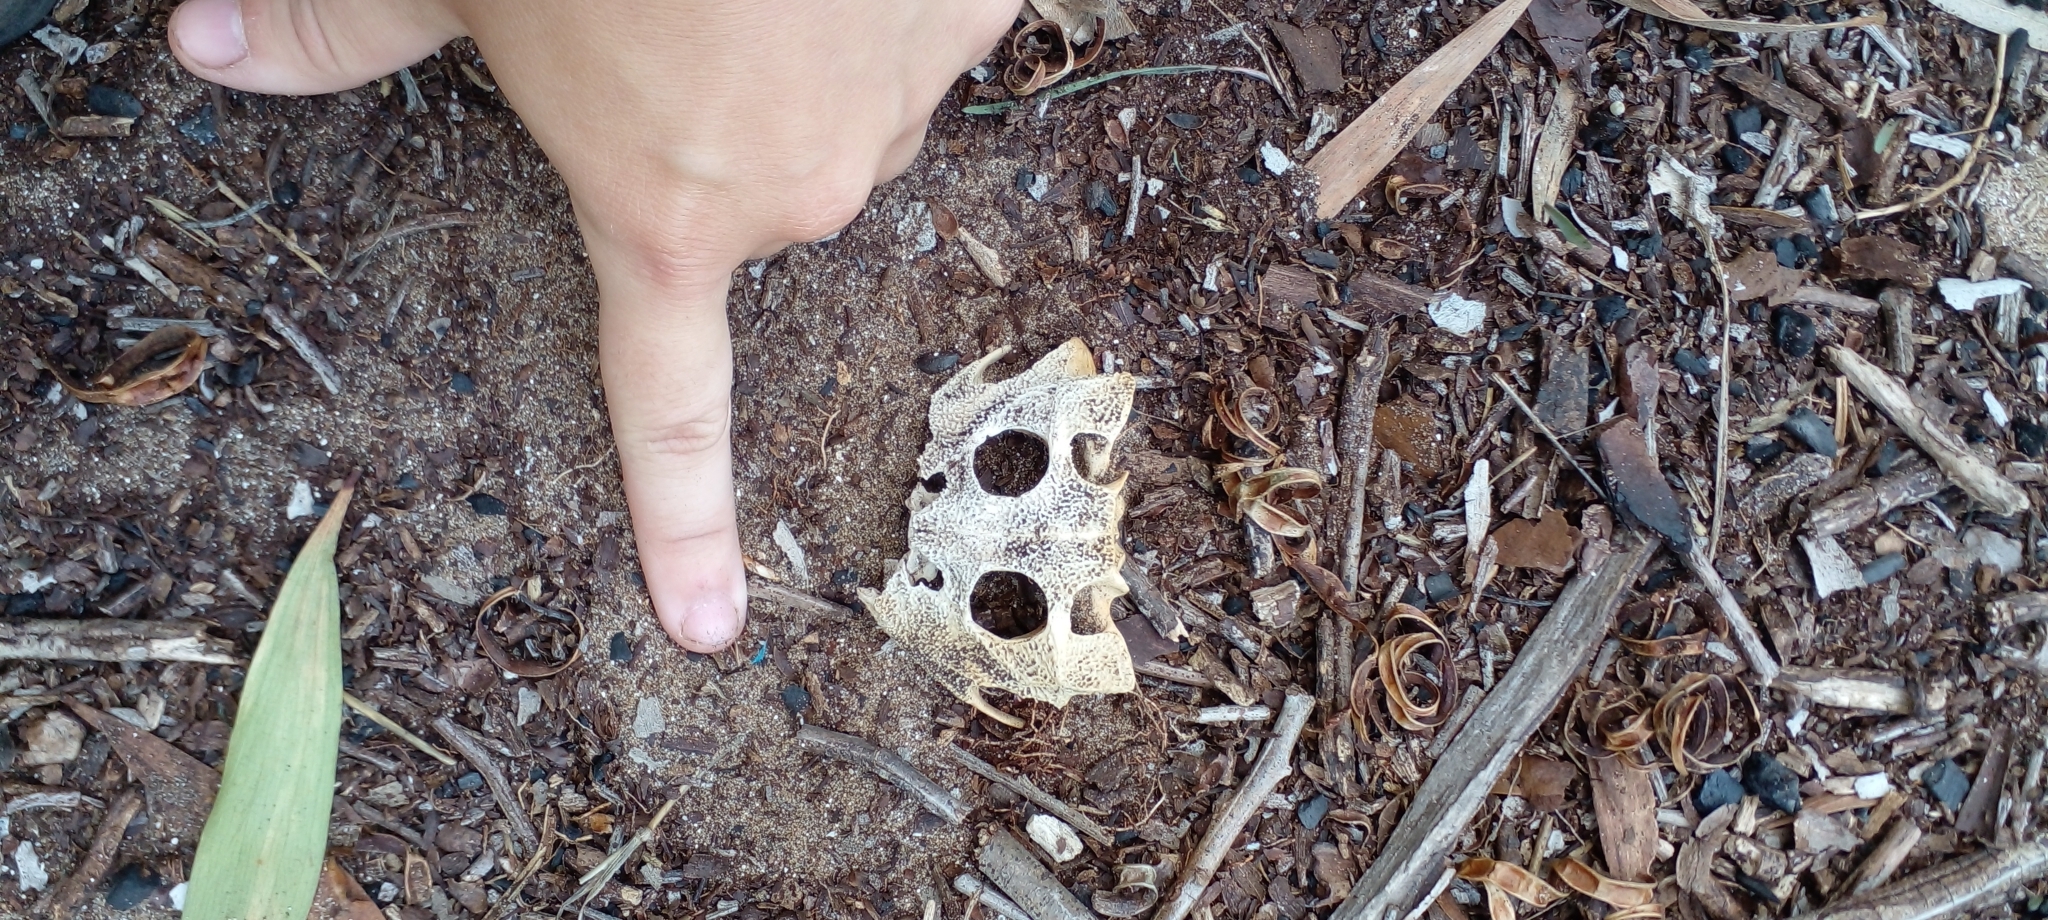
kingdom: Animalia
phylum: Chordata
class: Amphibia
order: Anura
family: Ceratophryidae
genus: Ceratophrys
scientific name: Ceratophrys ornata
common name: Argentinean horned frog
